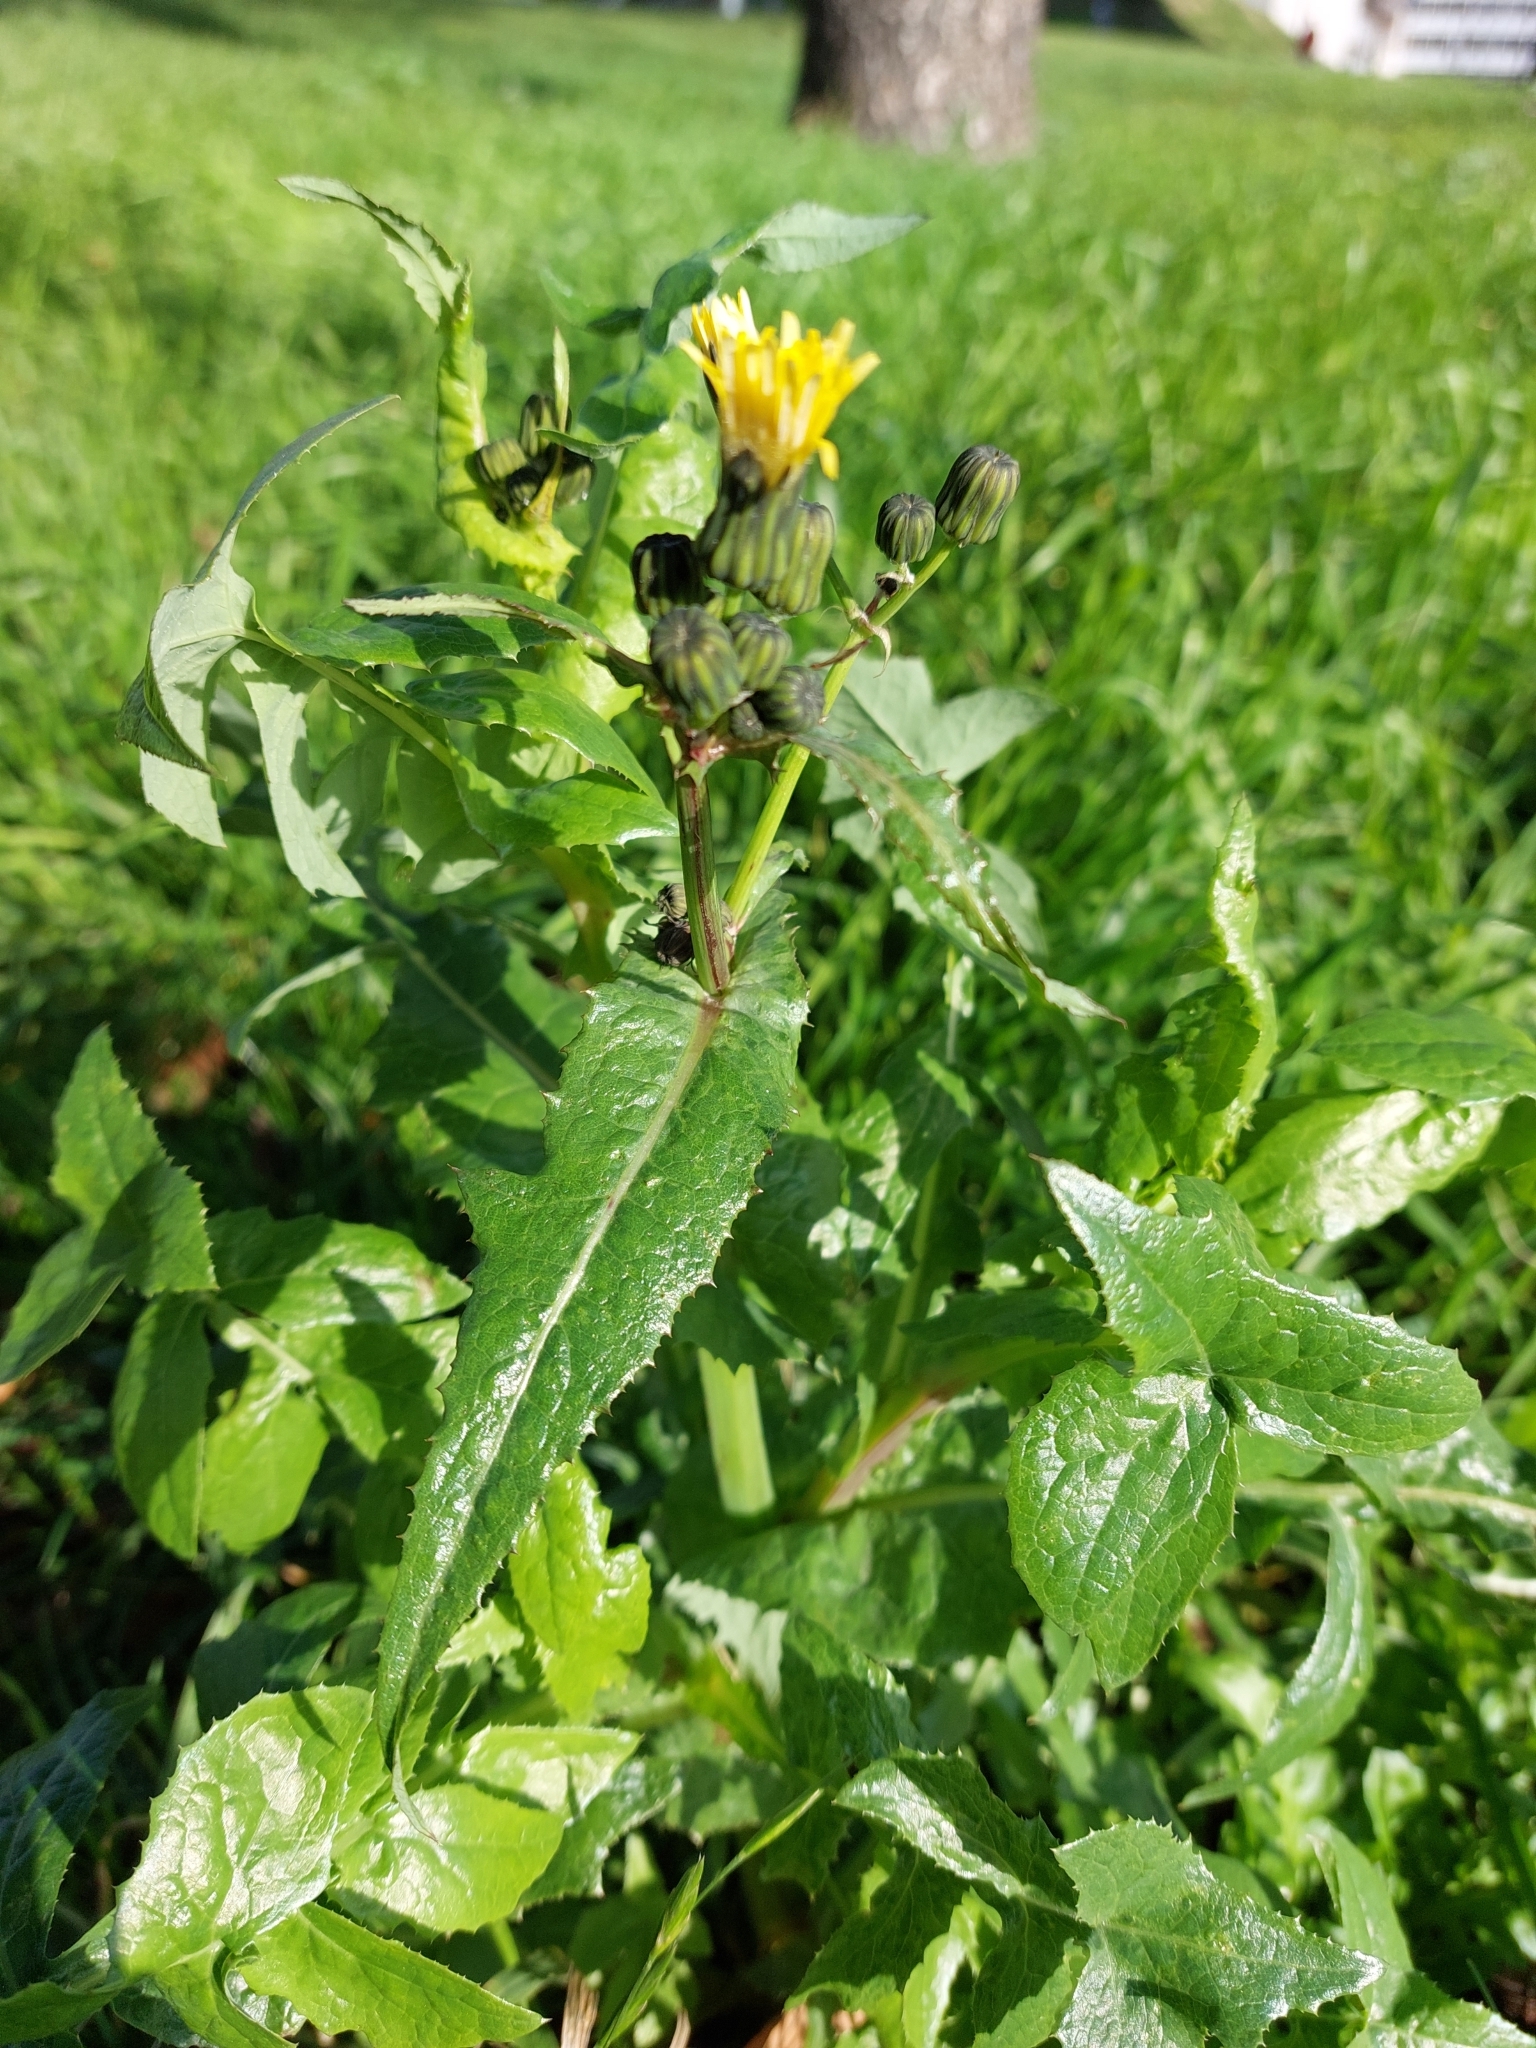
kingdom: Plantae
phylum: Tracheophyta
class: Magnoliopsida
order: Asterales
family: Asteraceae
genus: Sonchus
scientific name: Sonchus oleraceus
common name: Common sowthistle
